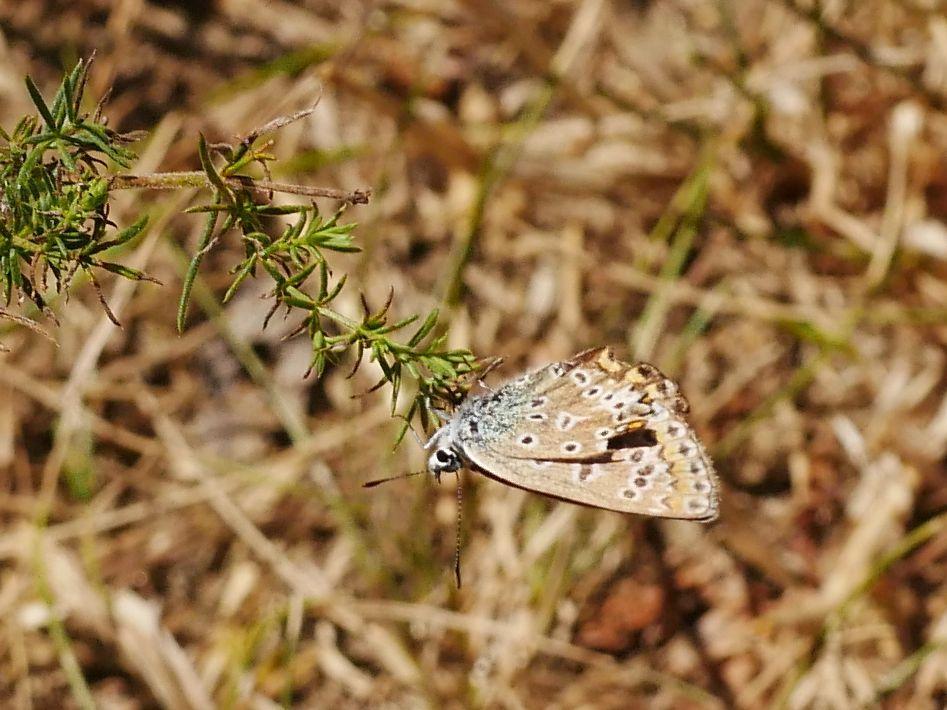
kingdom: Animalia
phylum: Arthropoda
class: Insecta
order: Lepidoptera
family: Lycaenidae
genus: Polyommatus
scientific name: Polyommatus icarus
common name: Common blue
